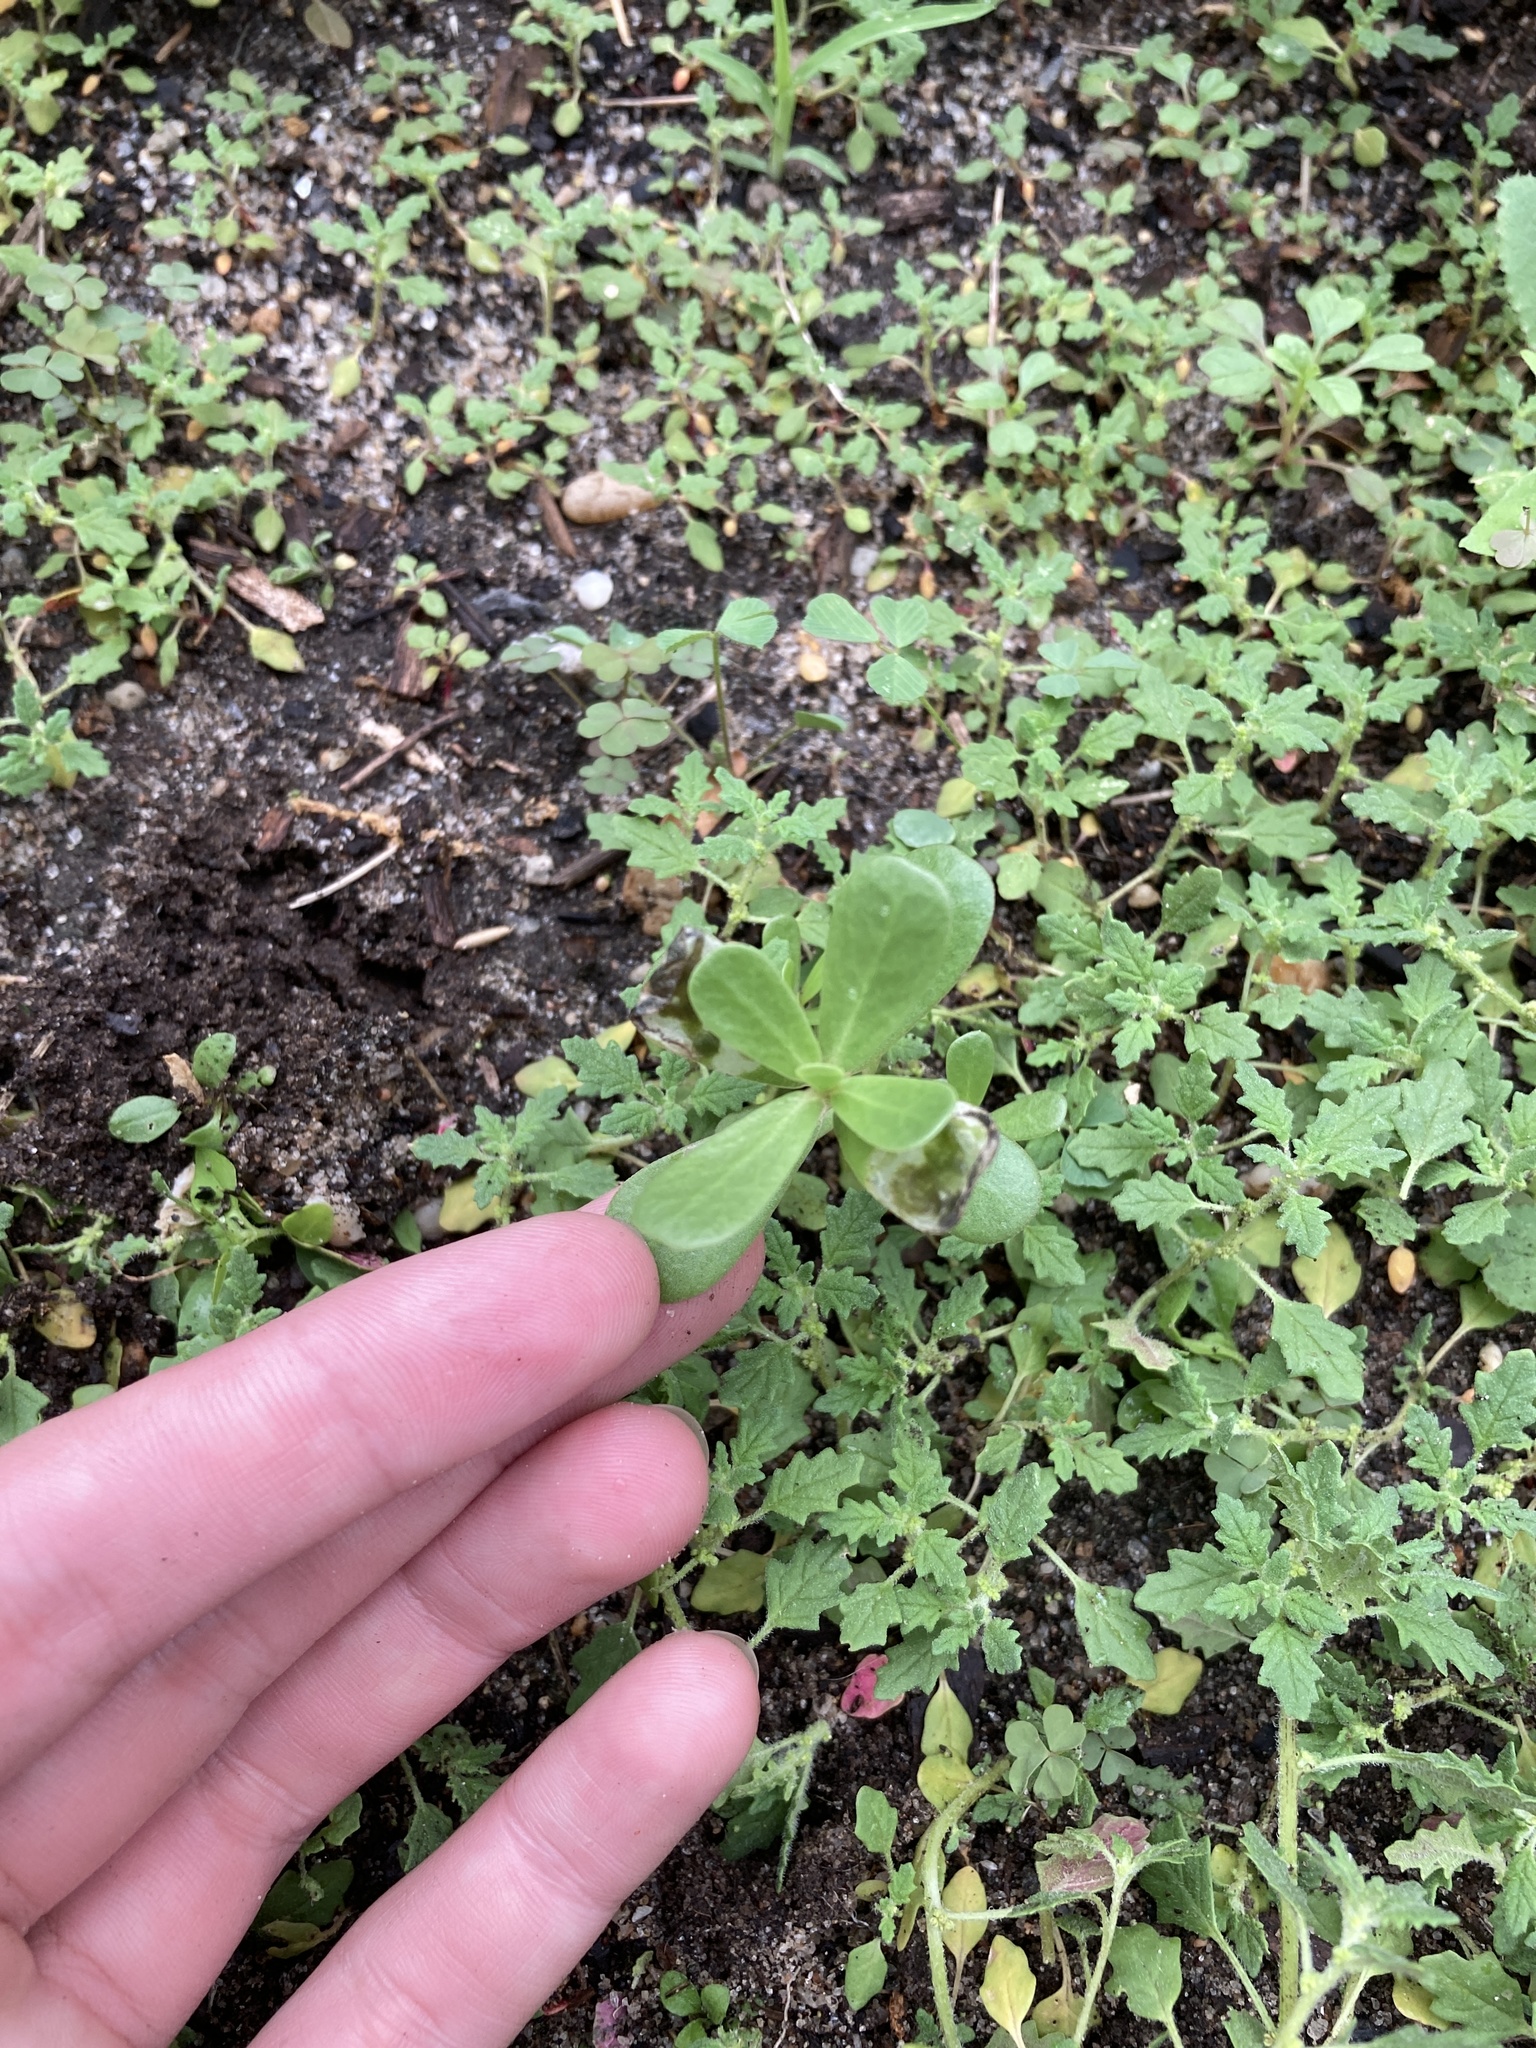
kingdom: Plantae
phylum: Tracheophyta
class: Magnoliopsida
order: Caryophyllales
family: Portulacaceae
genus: Portulaca
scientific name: Portulaca oleracea
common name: Common purslane
